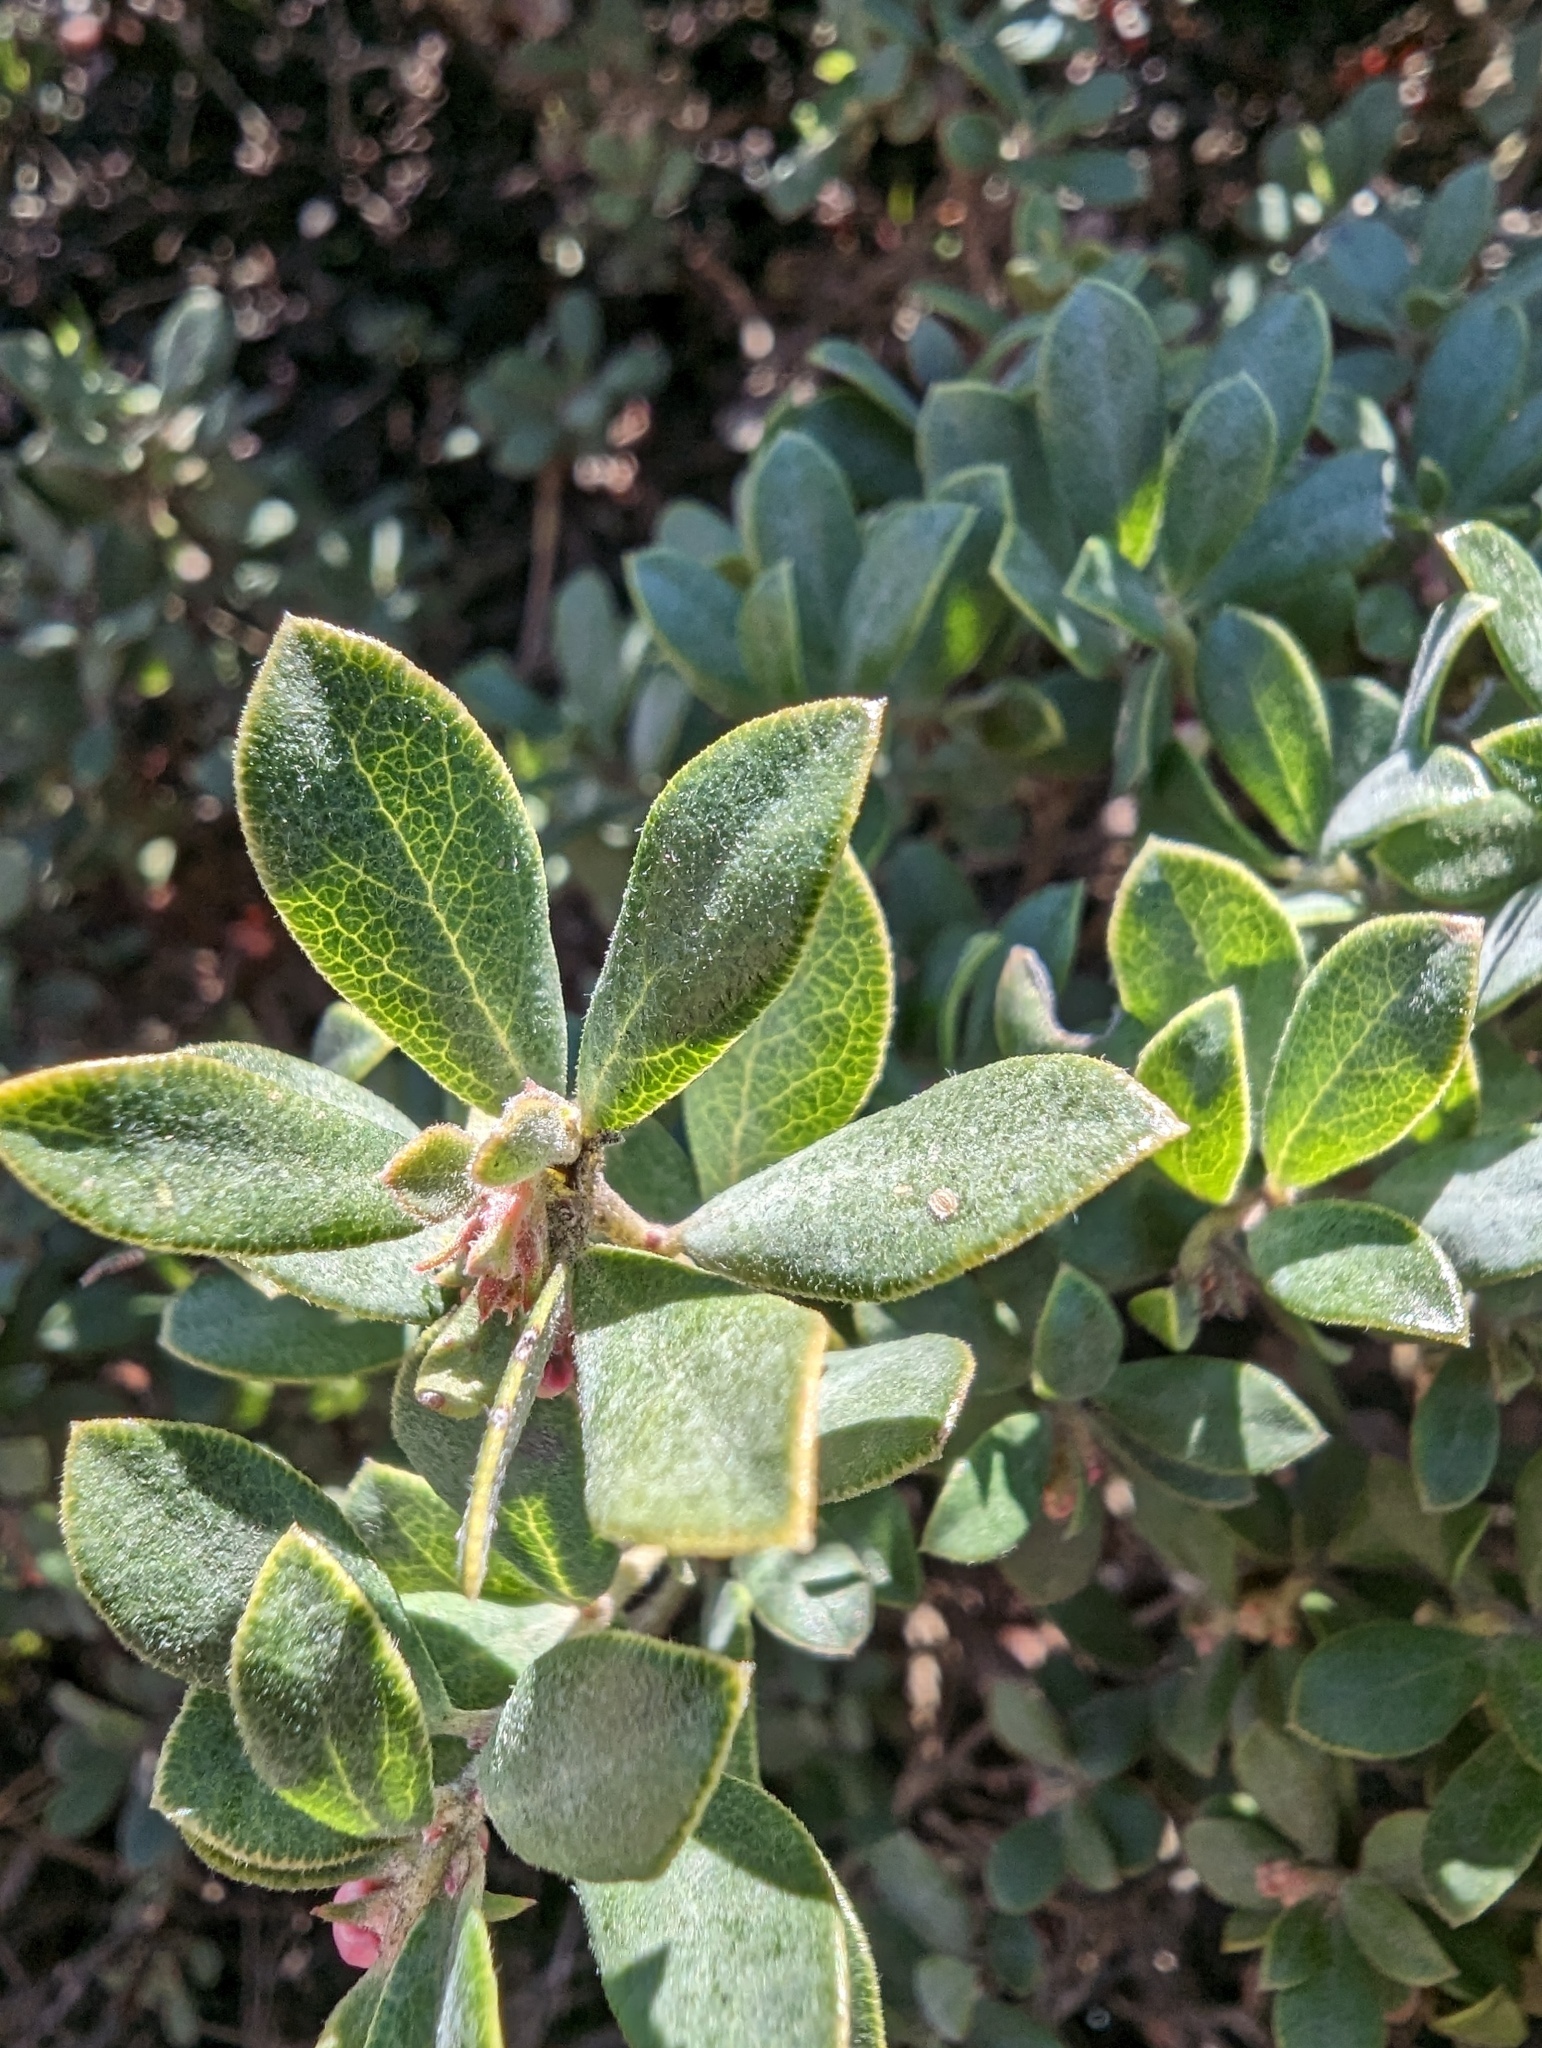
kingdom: Plantae
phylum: Tracheophyta
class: Magnoliopsida
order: Ericales
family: Ericaceae
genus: Arctostaphylos
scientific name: Arctostaphylos pumila
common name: Sandmat manzanita
